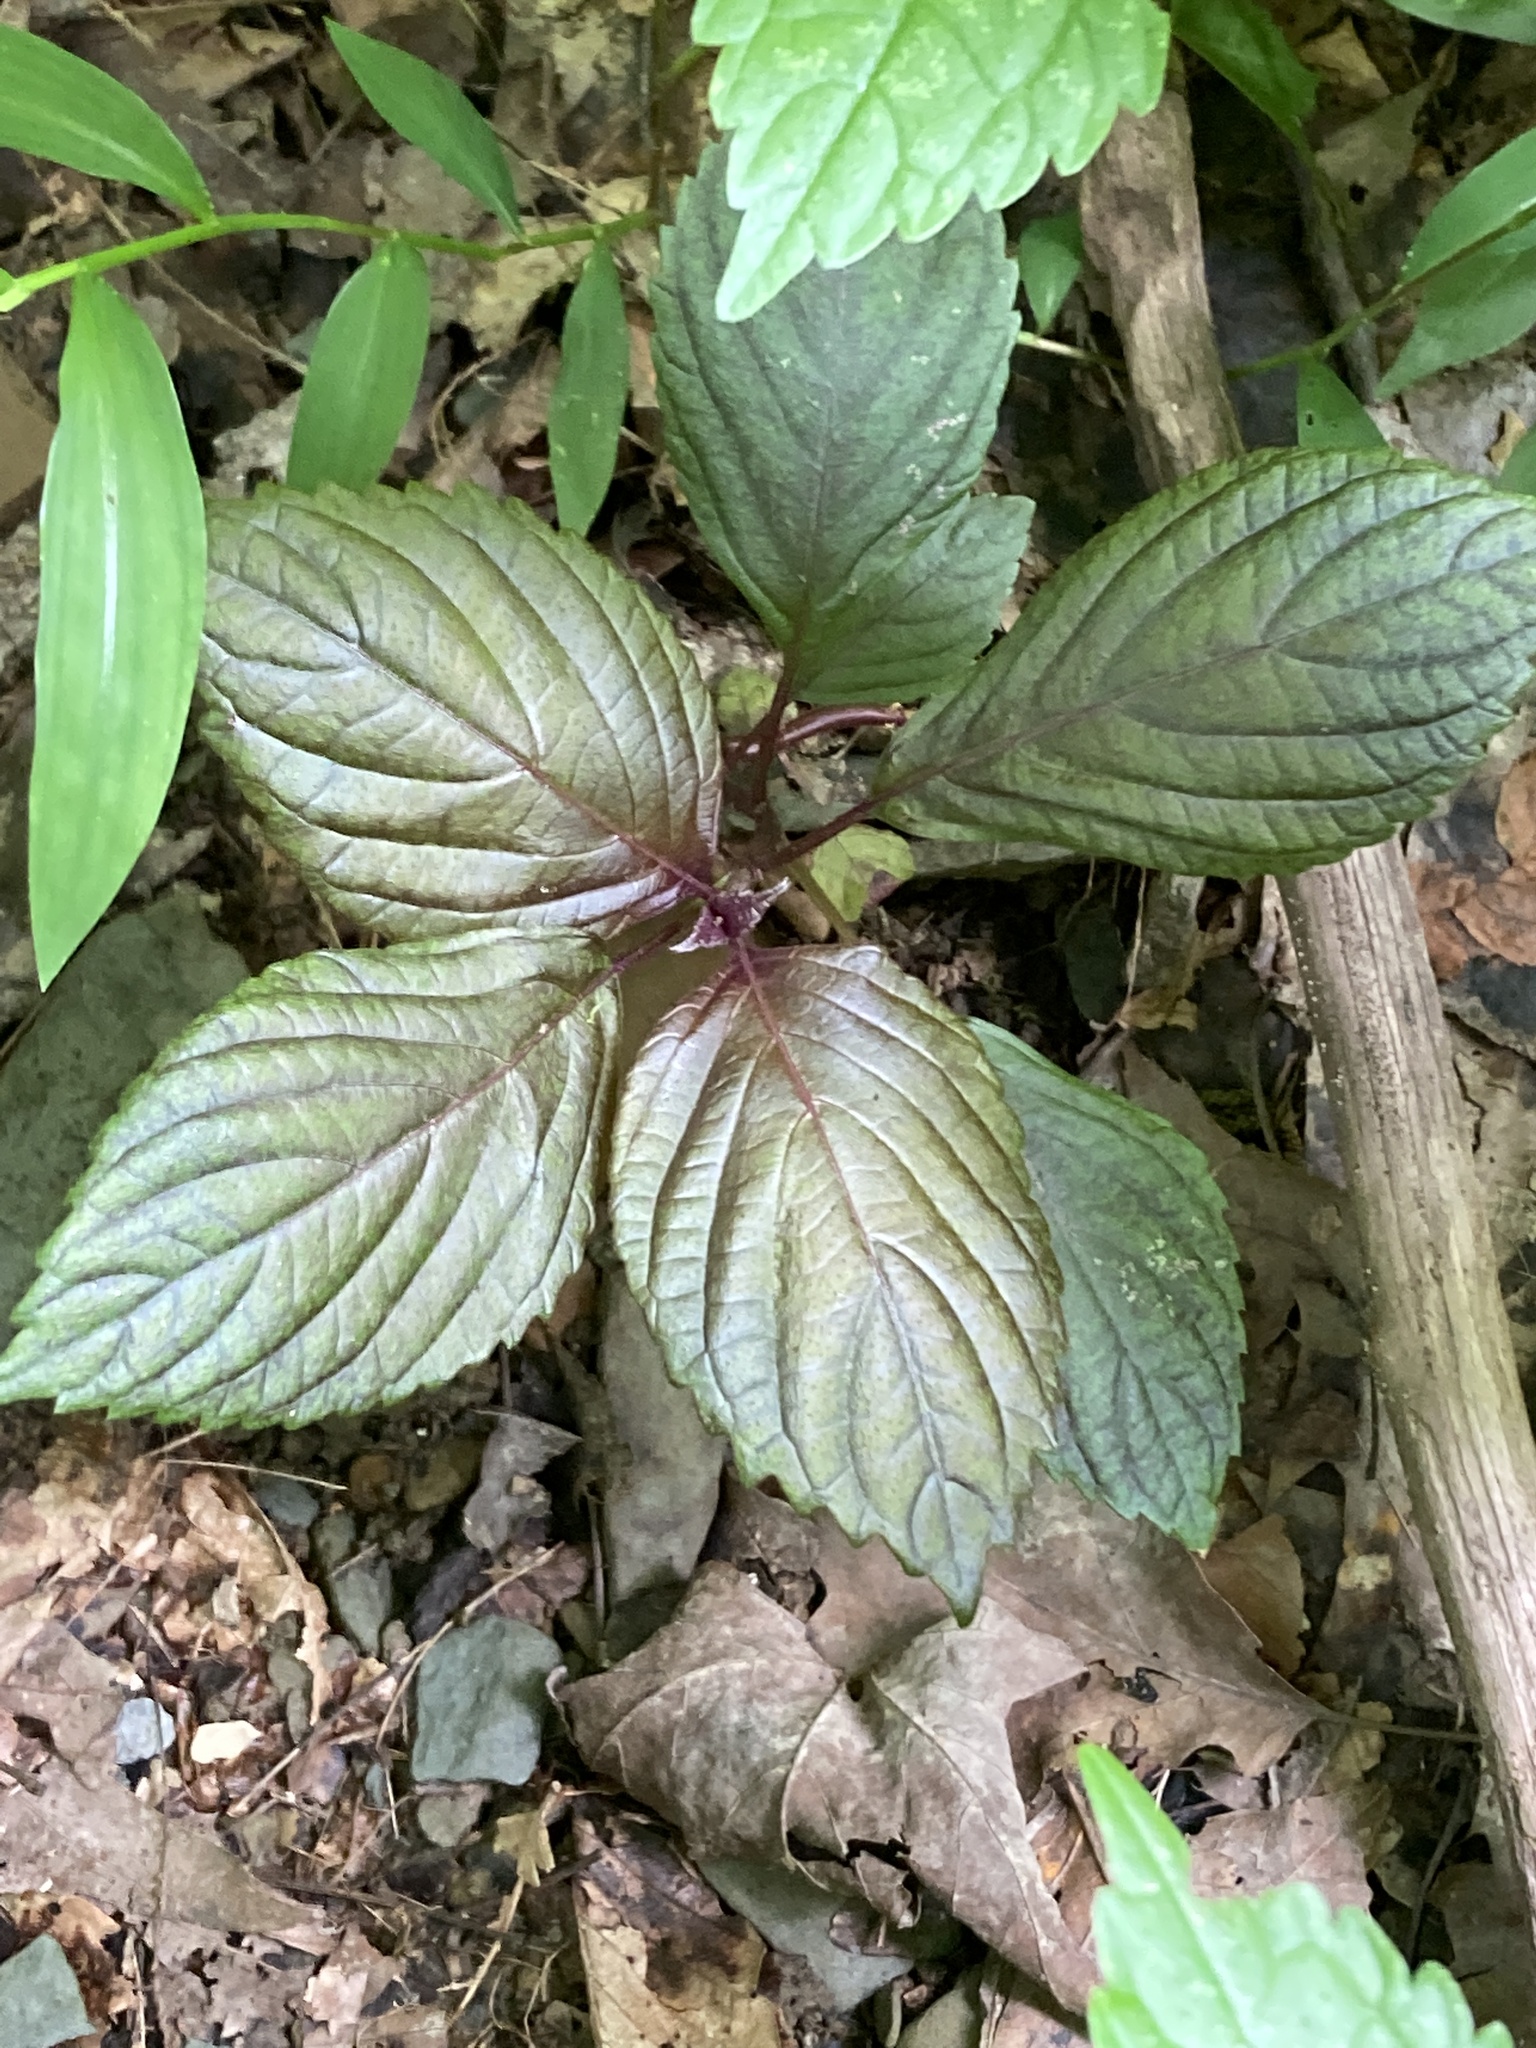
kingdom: Plantae
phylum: Tracheophyta
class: Magnoliopsida
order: Lamiales
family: Lamiaceae
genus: Perilla
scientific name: Perilla frutescens
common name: Perilla
